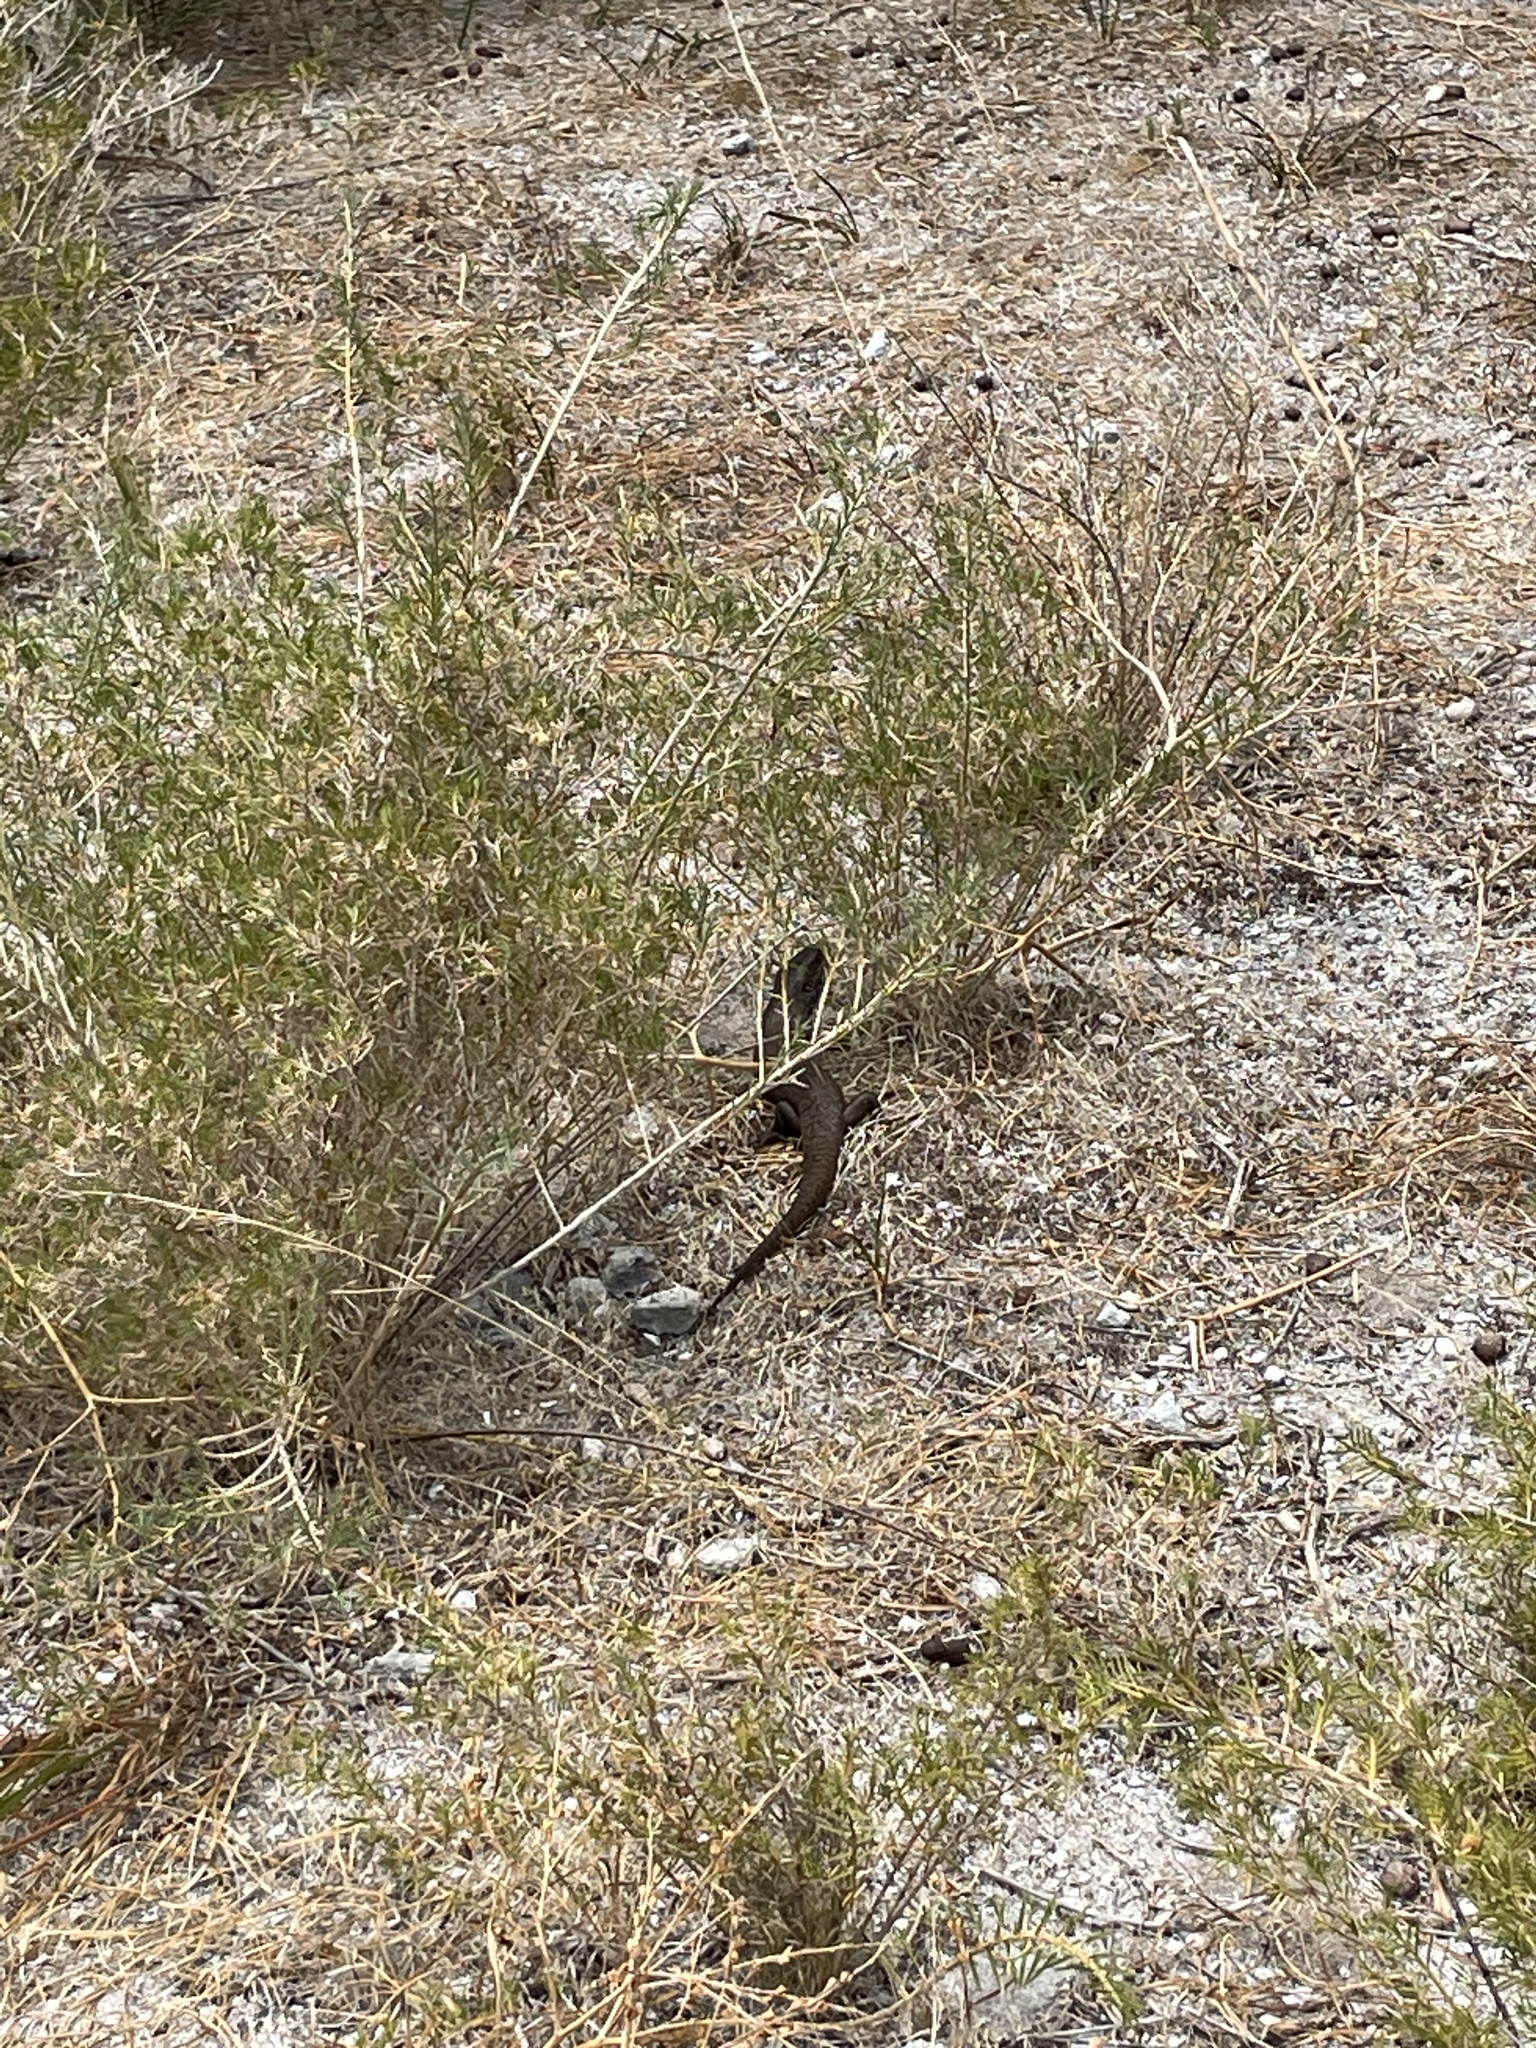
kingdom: Animalia
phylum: Chordata
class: Squamata
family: Scincidae
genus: Egernia
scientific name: Egernia kingii
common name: King's skink
